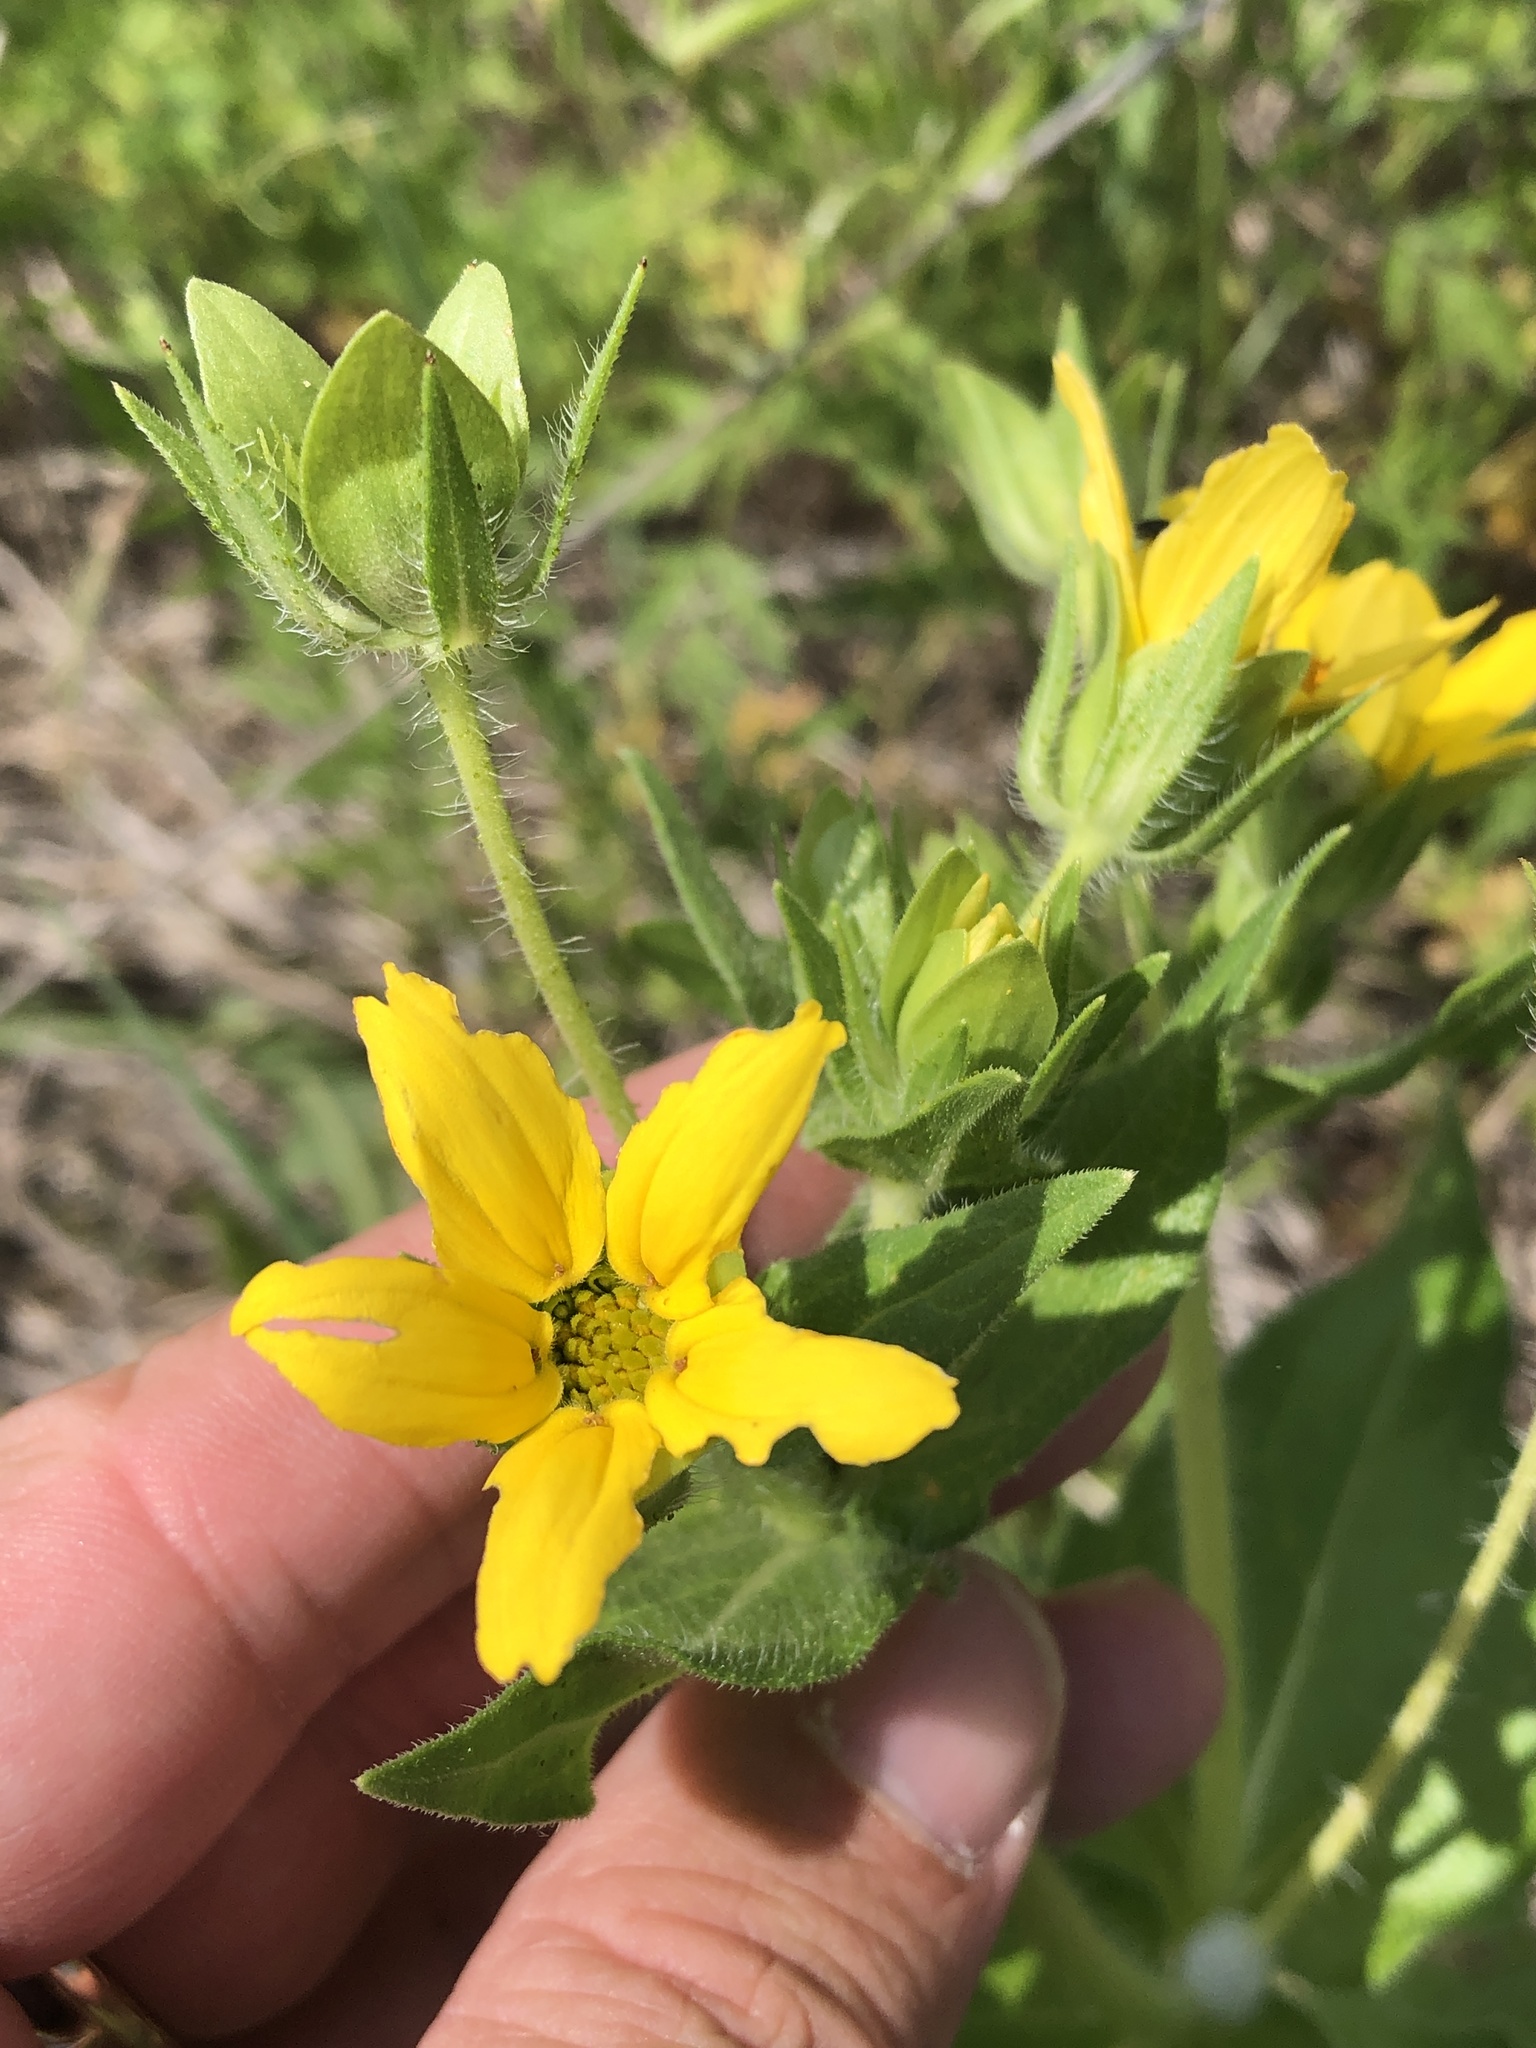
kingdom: Plantae
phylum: Tracheophyta
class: Magnoliopsida
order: Asterales
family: Asteraceae
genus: Lindheimera
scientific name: Lindheimera texana
